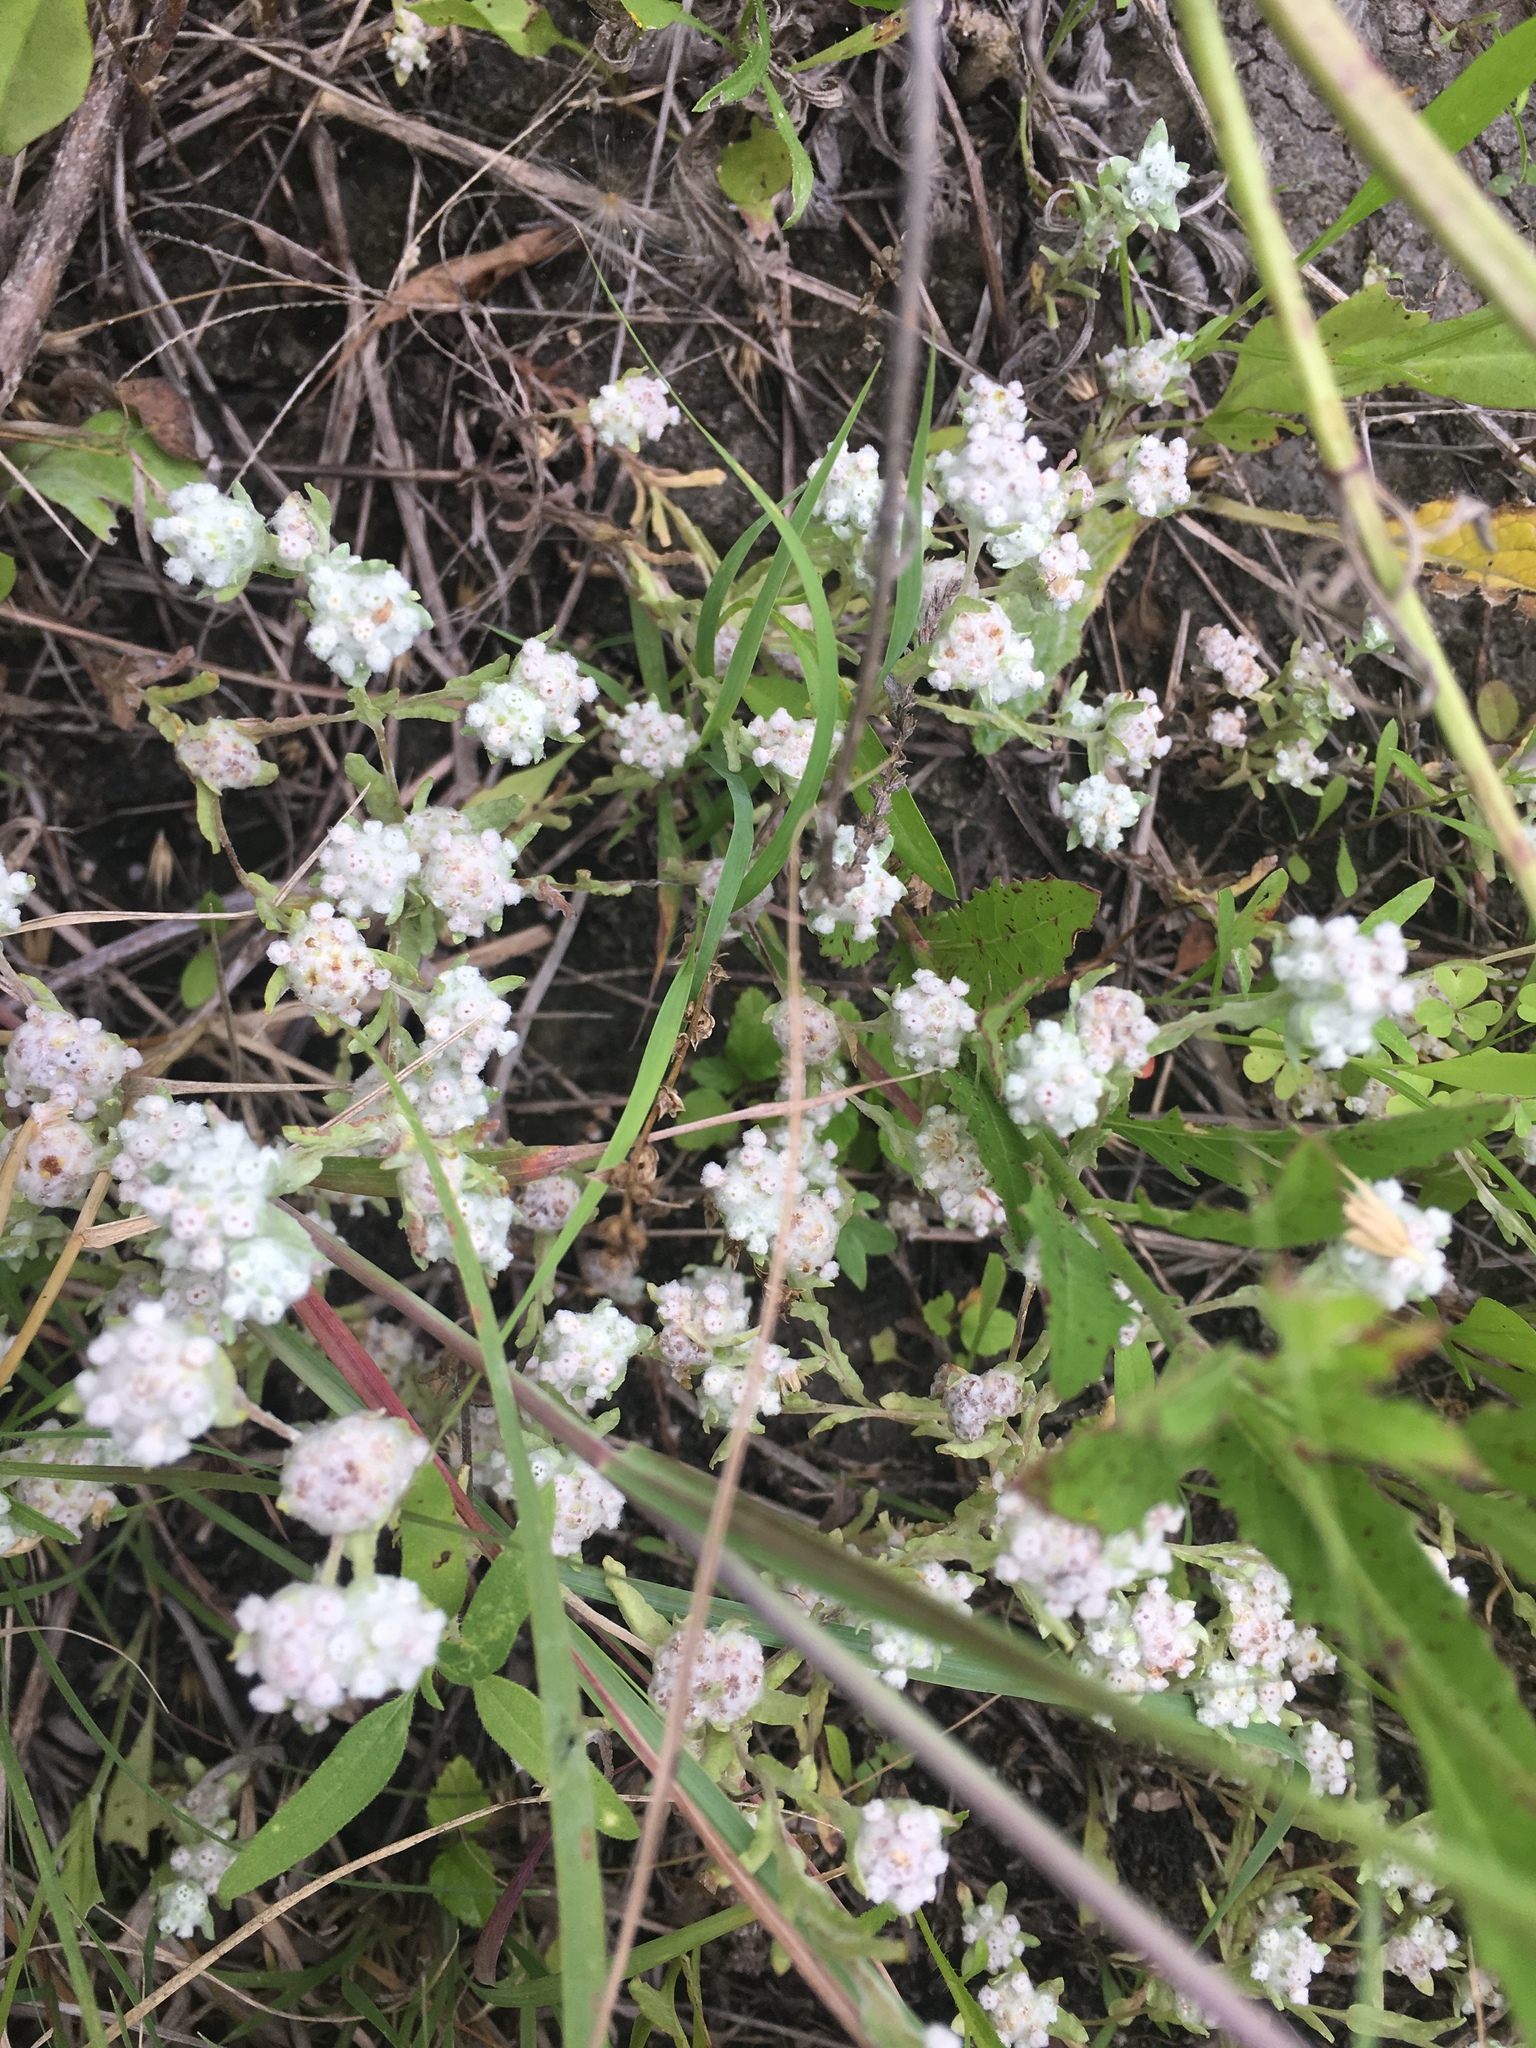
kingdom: Plantae
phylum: Tracheophyta
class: Magnoliopsida
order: Asterales
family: Asteraceae
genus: Diaperia
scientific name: Diaperia verna
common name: Many-stem rabbit-tobacco
